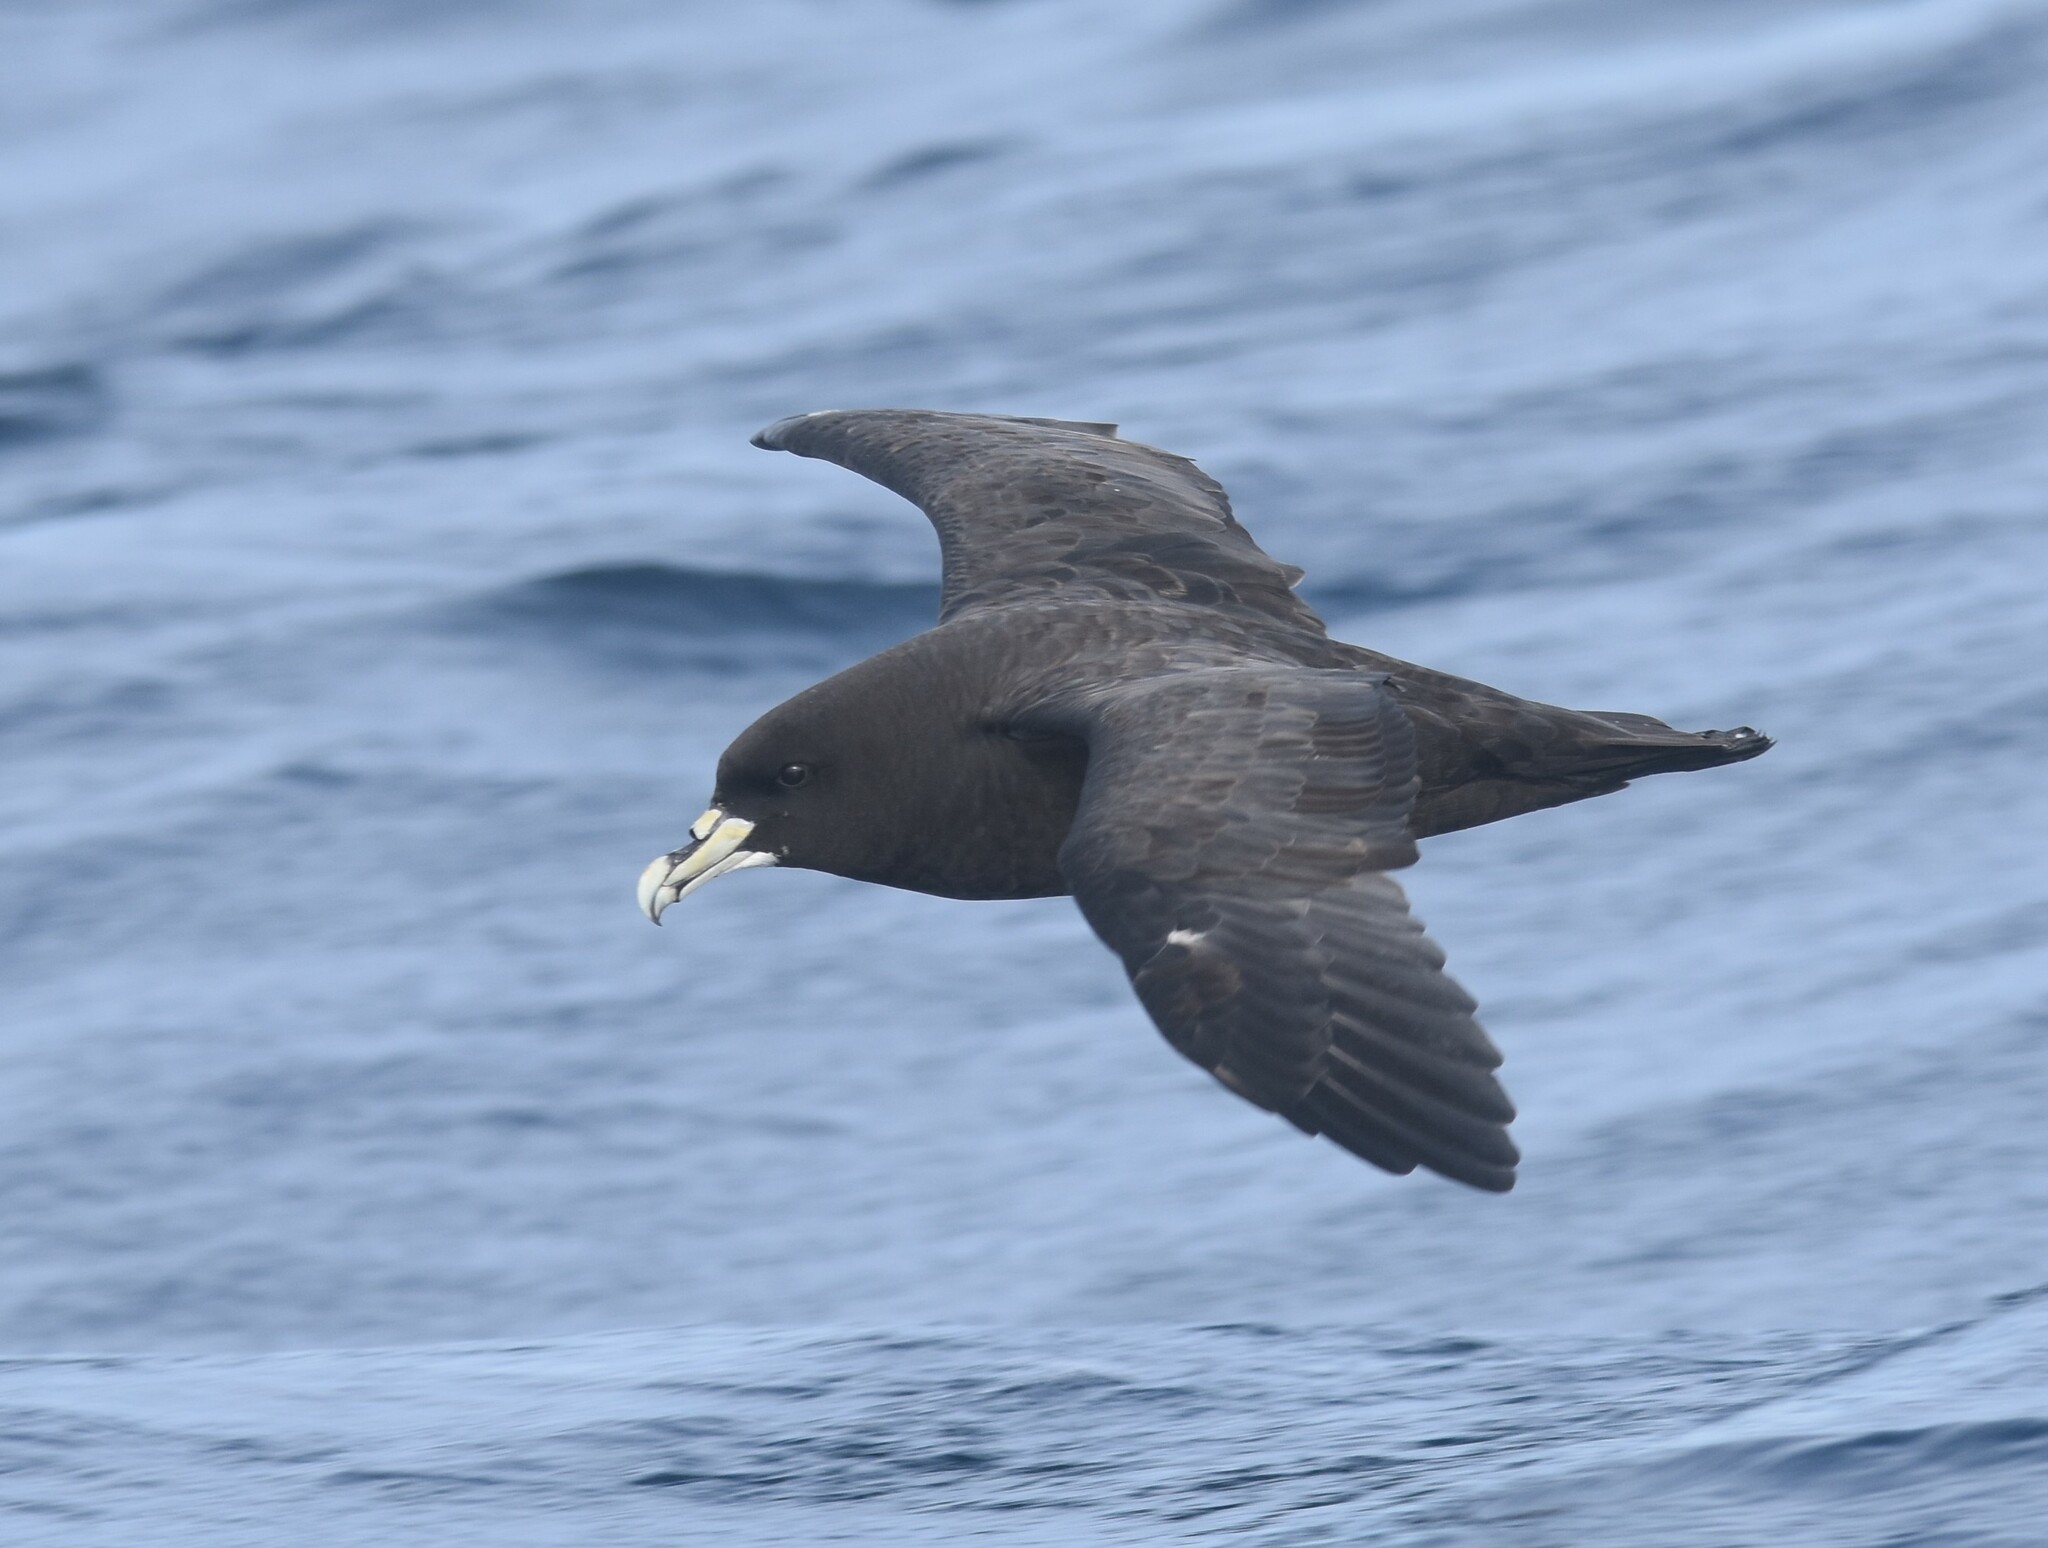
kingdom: Animalia
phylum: Chordata
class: Aves
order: Procellariiformes
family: Procellariidae
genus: Procellaria
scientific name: Procellaria aequinoctialis
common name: White-chinned petrel
